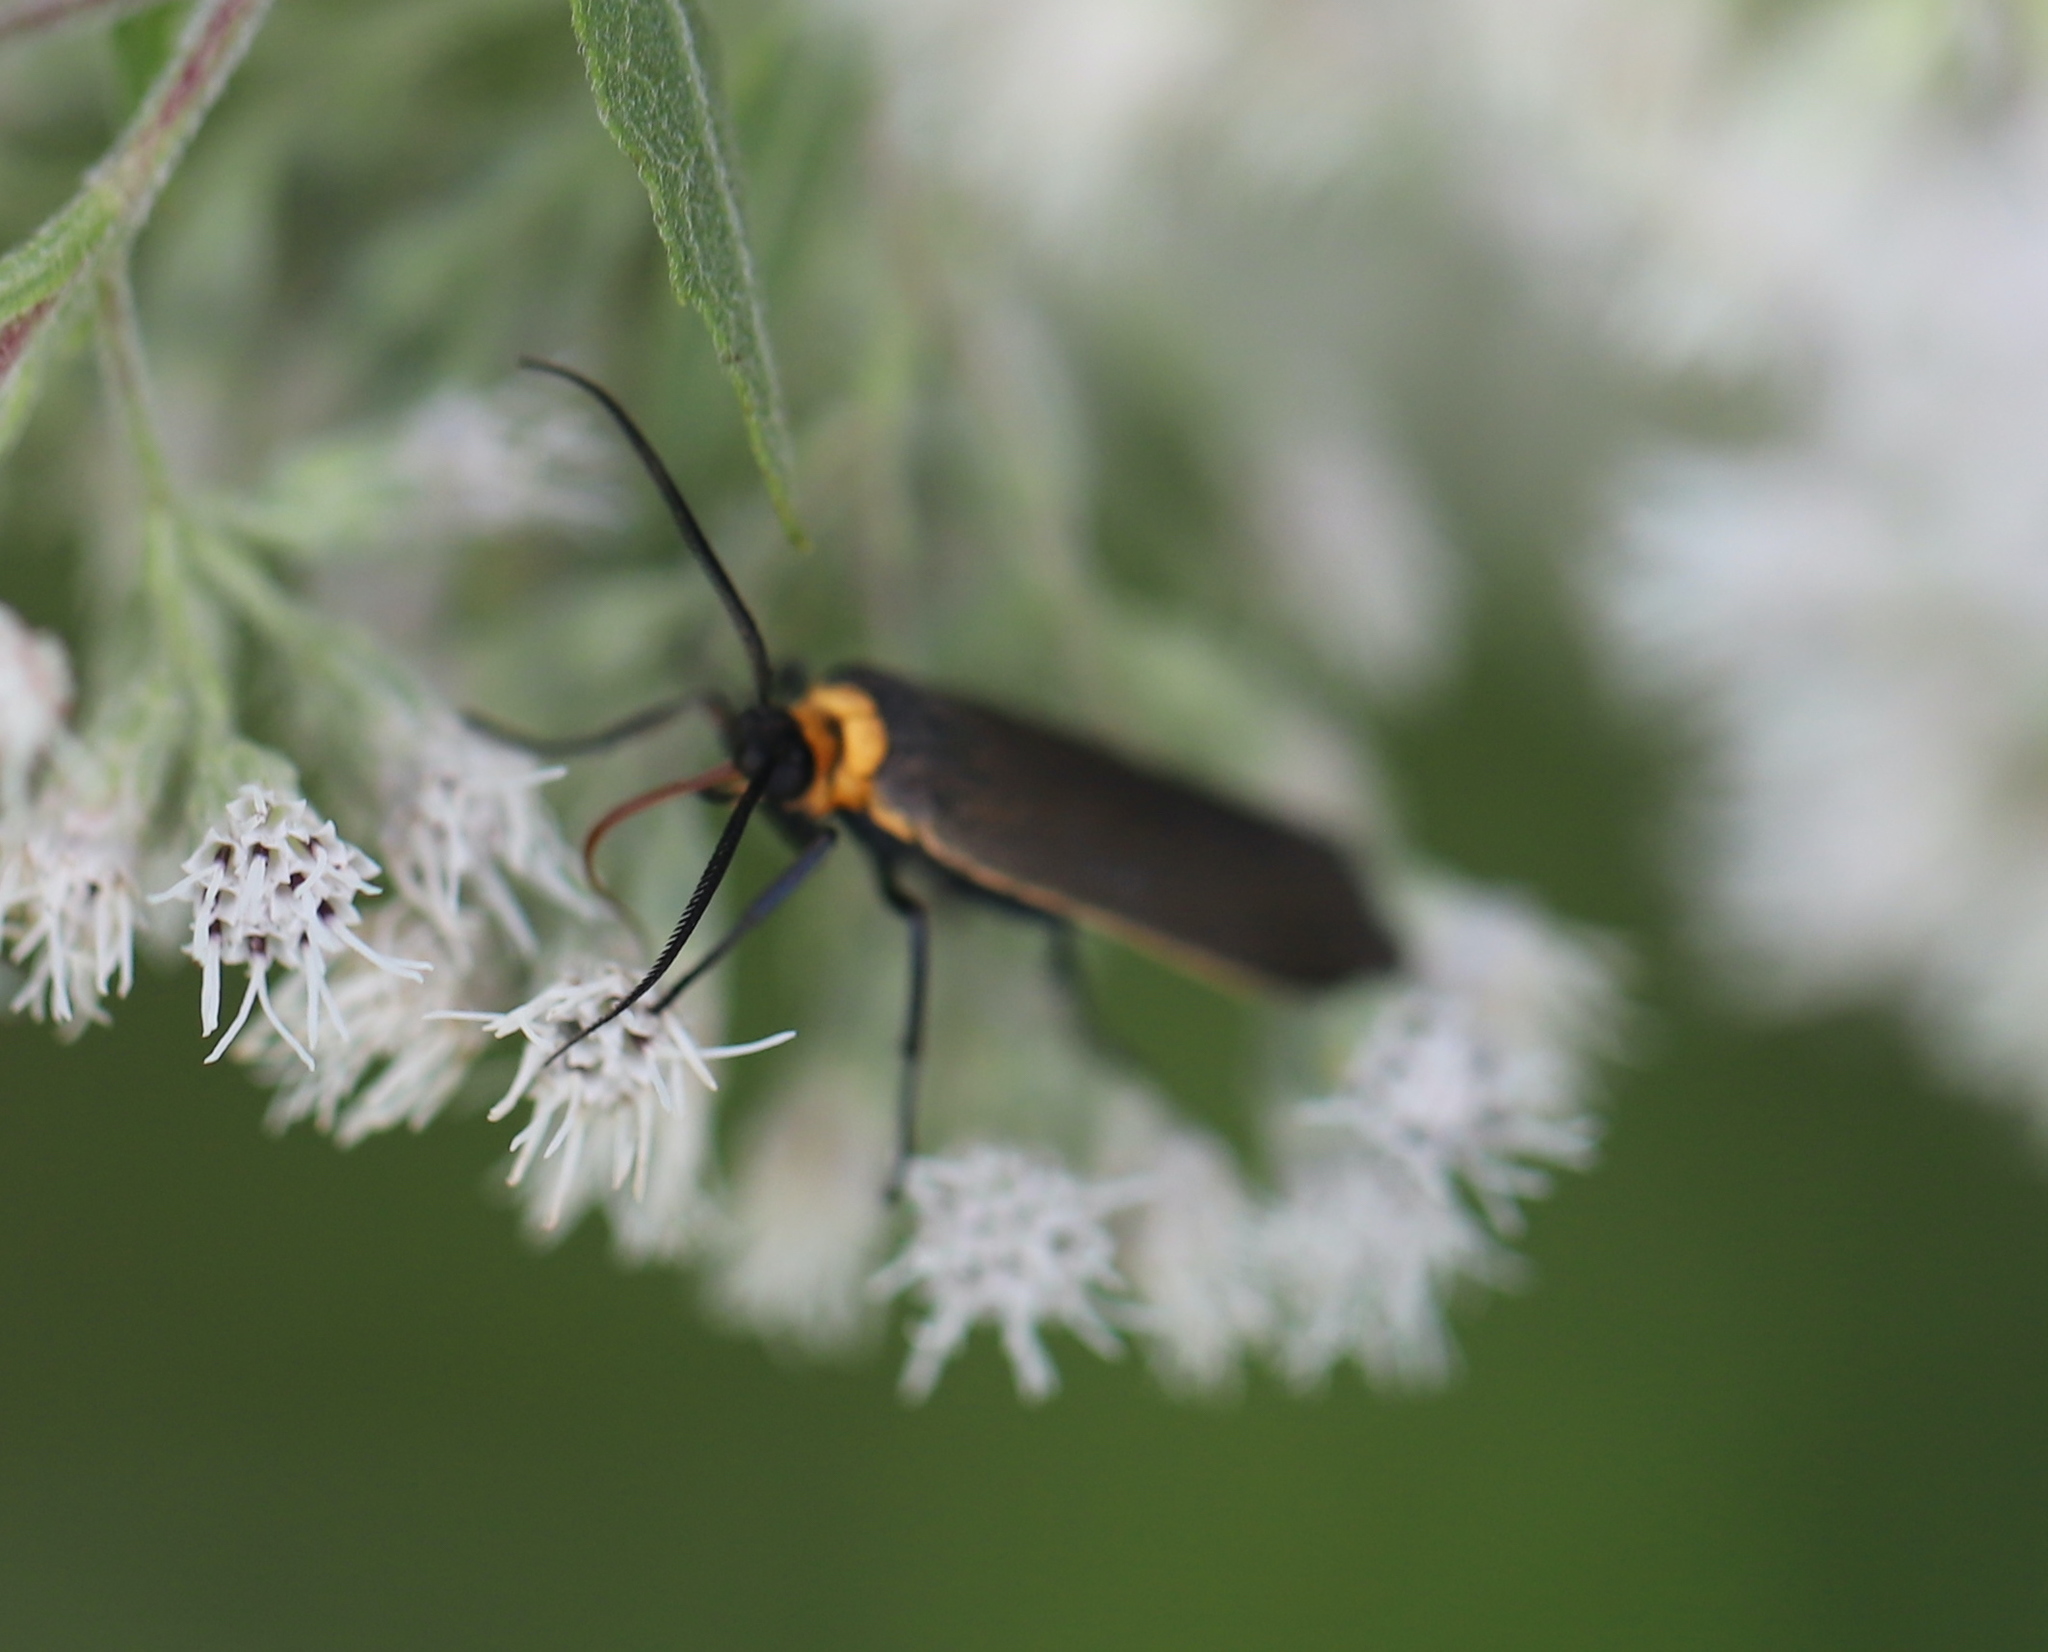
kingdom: Animalia
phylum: Arthropoda
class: Insecta
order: Lepidoptera
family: Erebidae
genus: Cisseps
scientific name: Cisseps fulvicollis
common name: Yellow-collared scape moth
